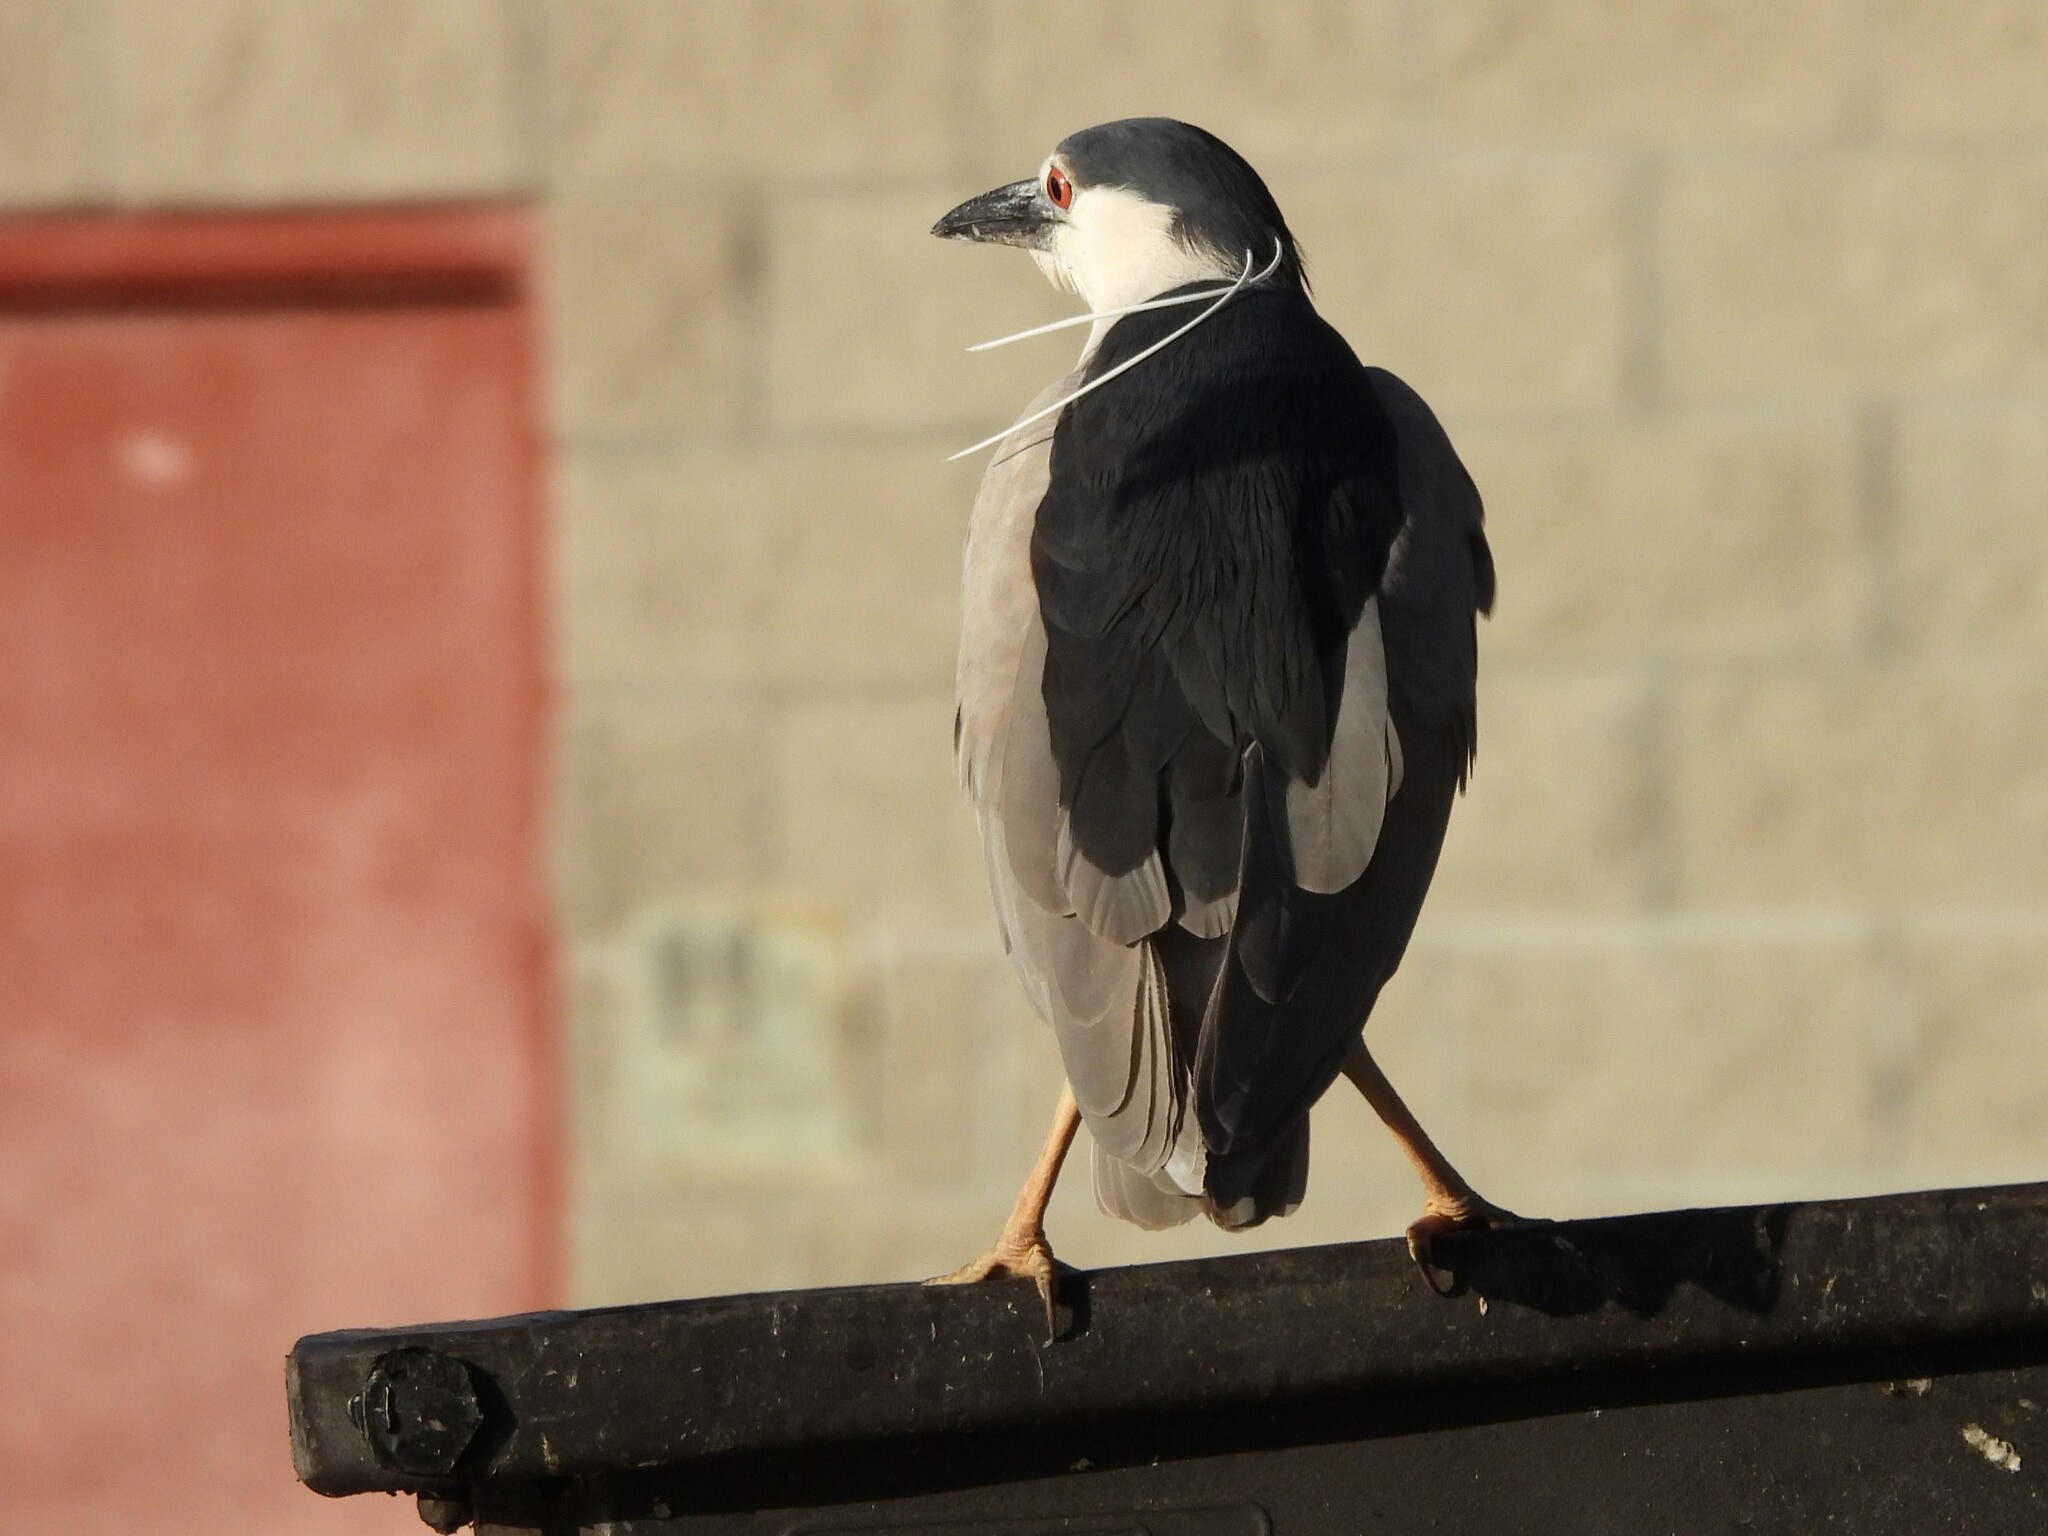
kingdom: Animalia
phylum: Chordata
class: Aves
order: Pelecaniformes
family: Ardeidae
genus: Nycticorax
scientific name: Nycticorax nycticorax
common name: Black-crowned night heron
